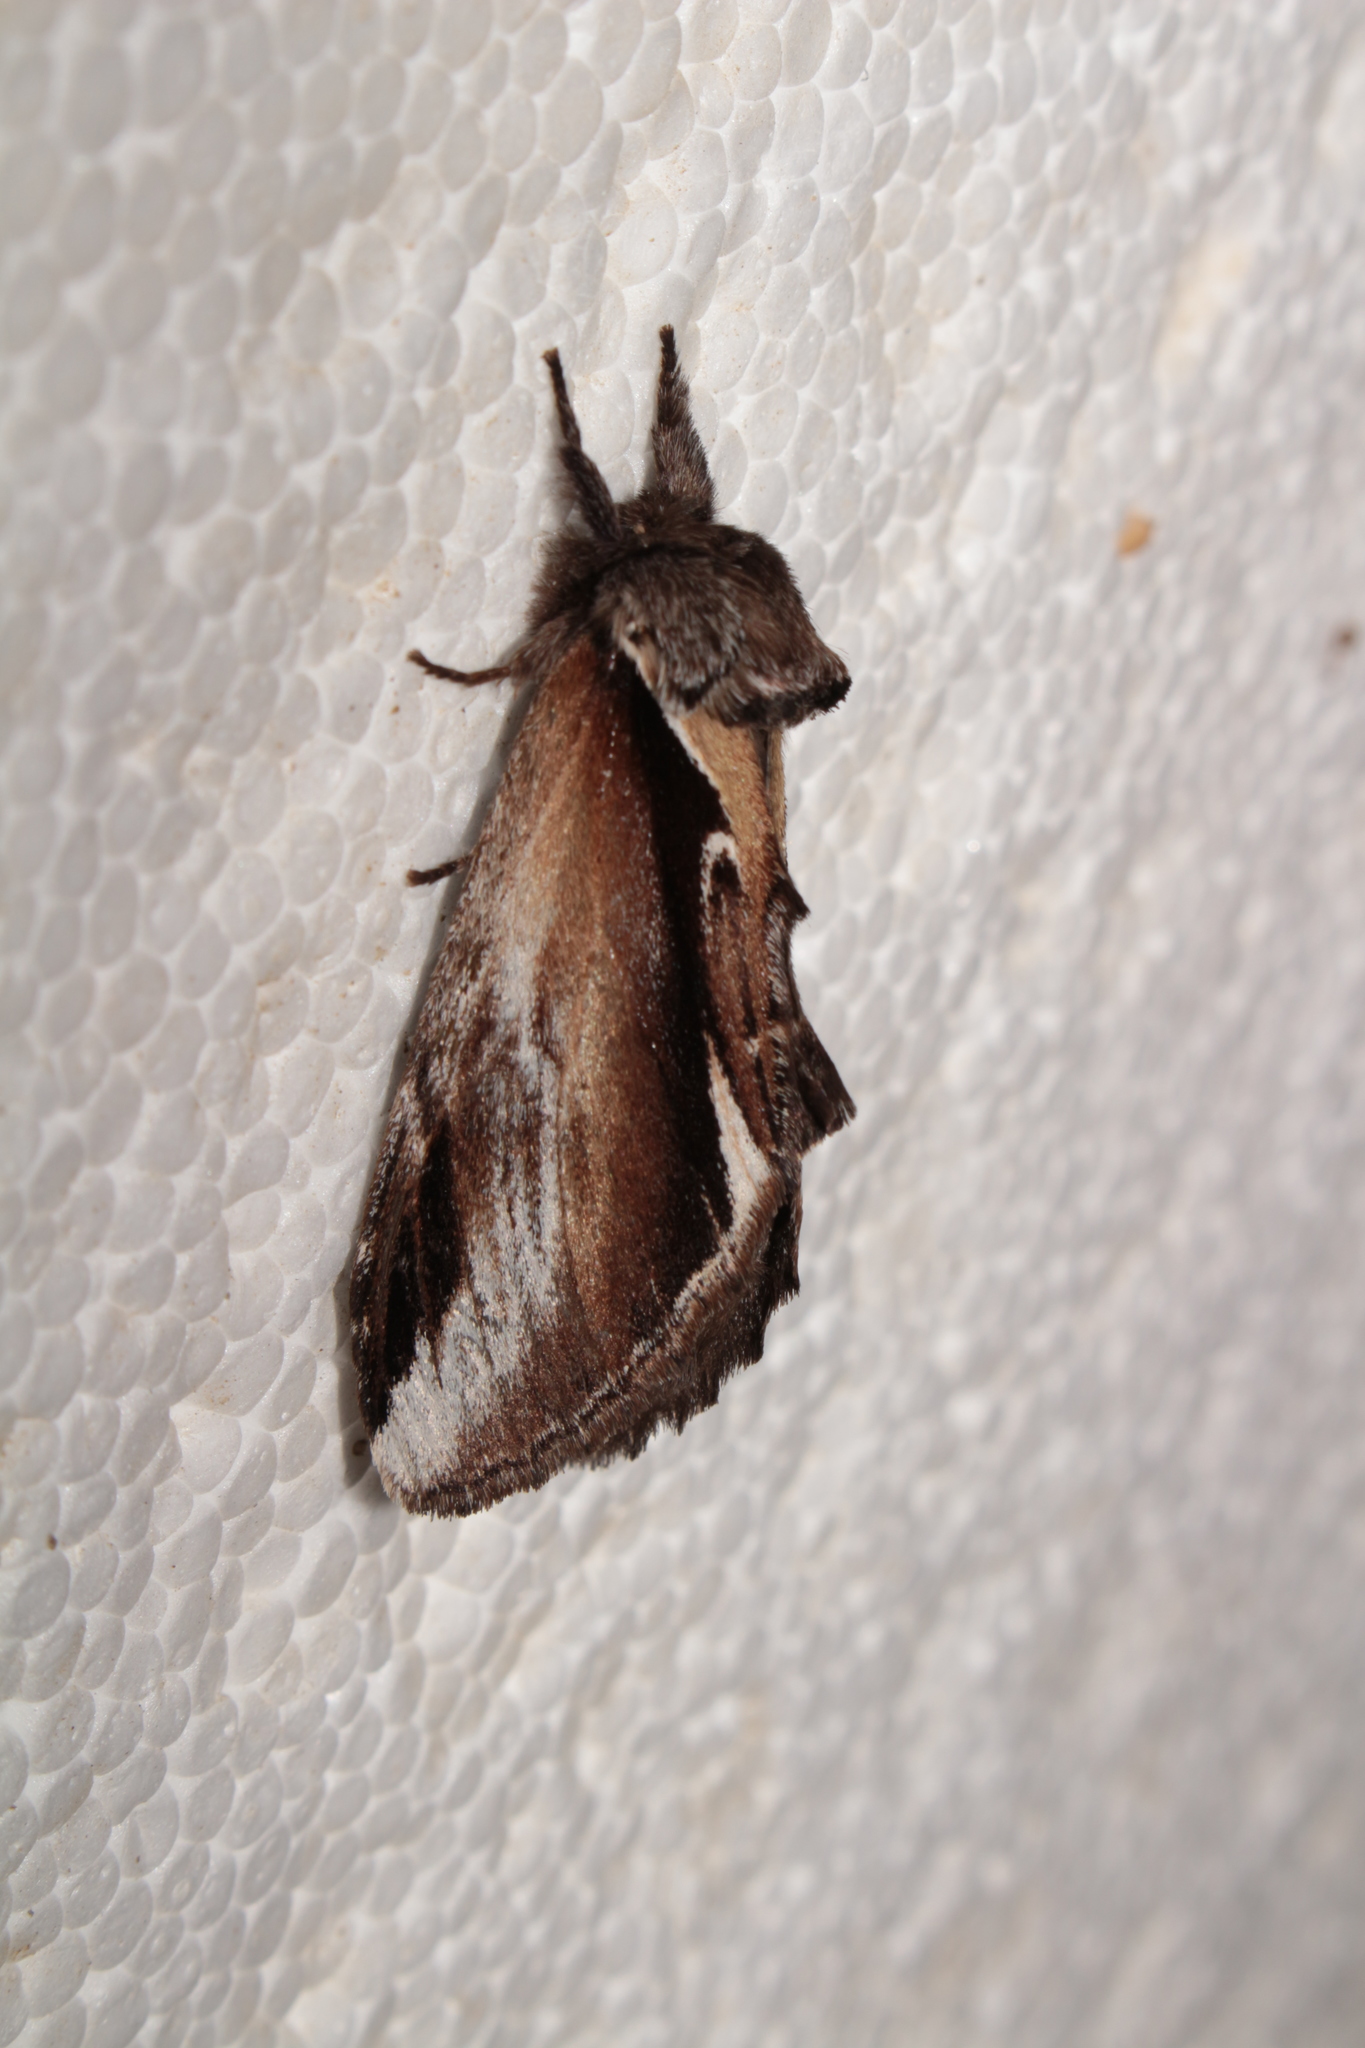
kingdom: Animalia
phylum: Arthropoda
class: Insecta
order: Lepidoptera
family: Notodontidae
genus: Pheosia
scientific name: Pheosia gnoma
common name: Lesser swallow prominent
